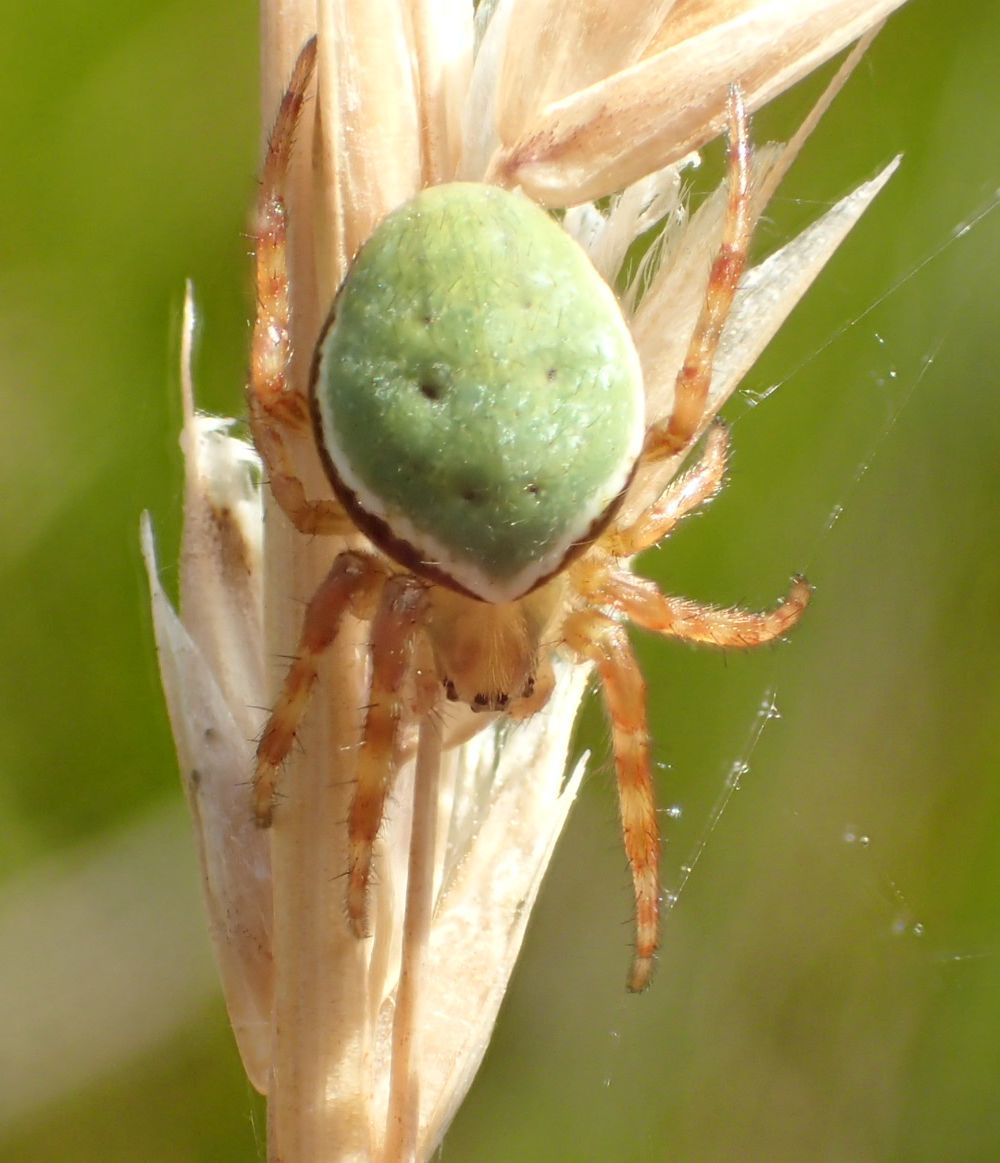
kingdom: Animalia
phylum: Arthropoda
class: Arachnida
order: Araneae
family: Araneidae
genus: Colaranea
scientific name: Colaranea viriditas
